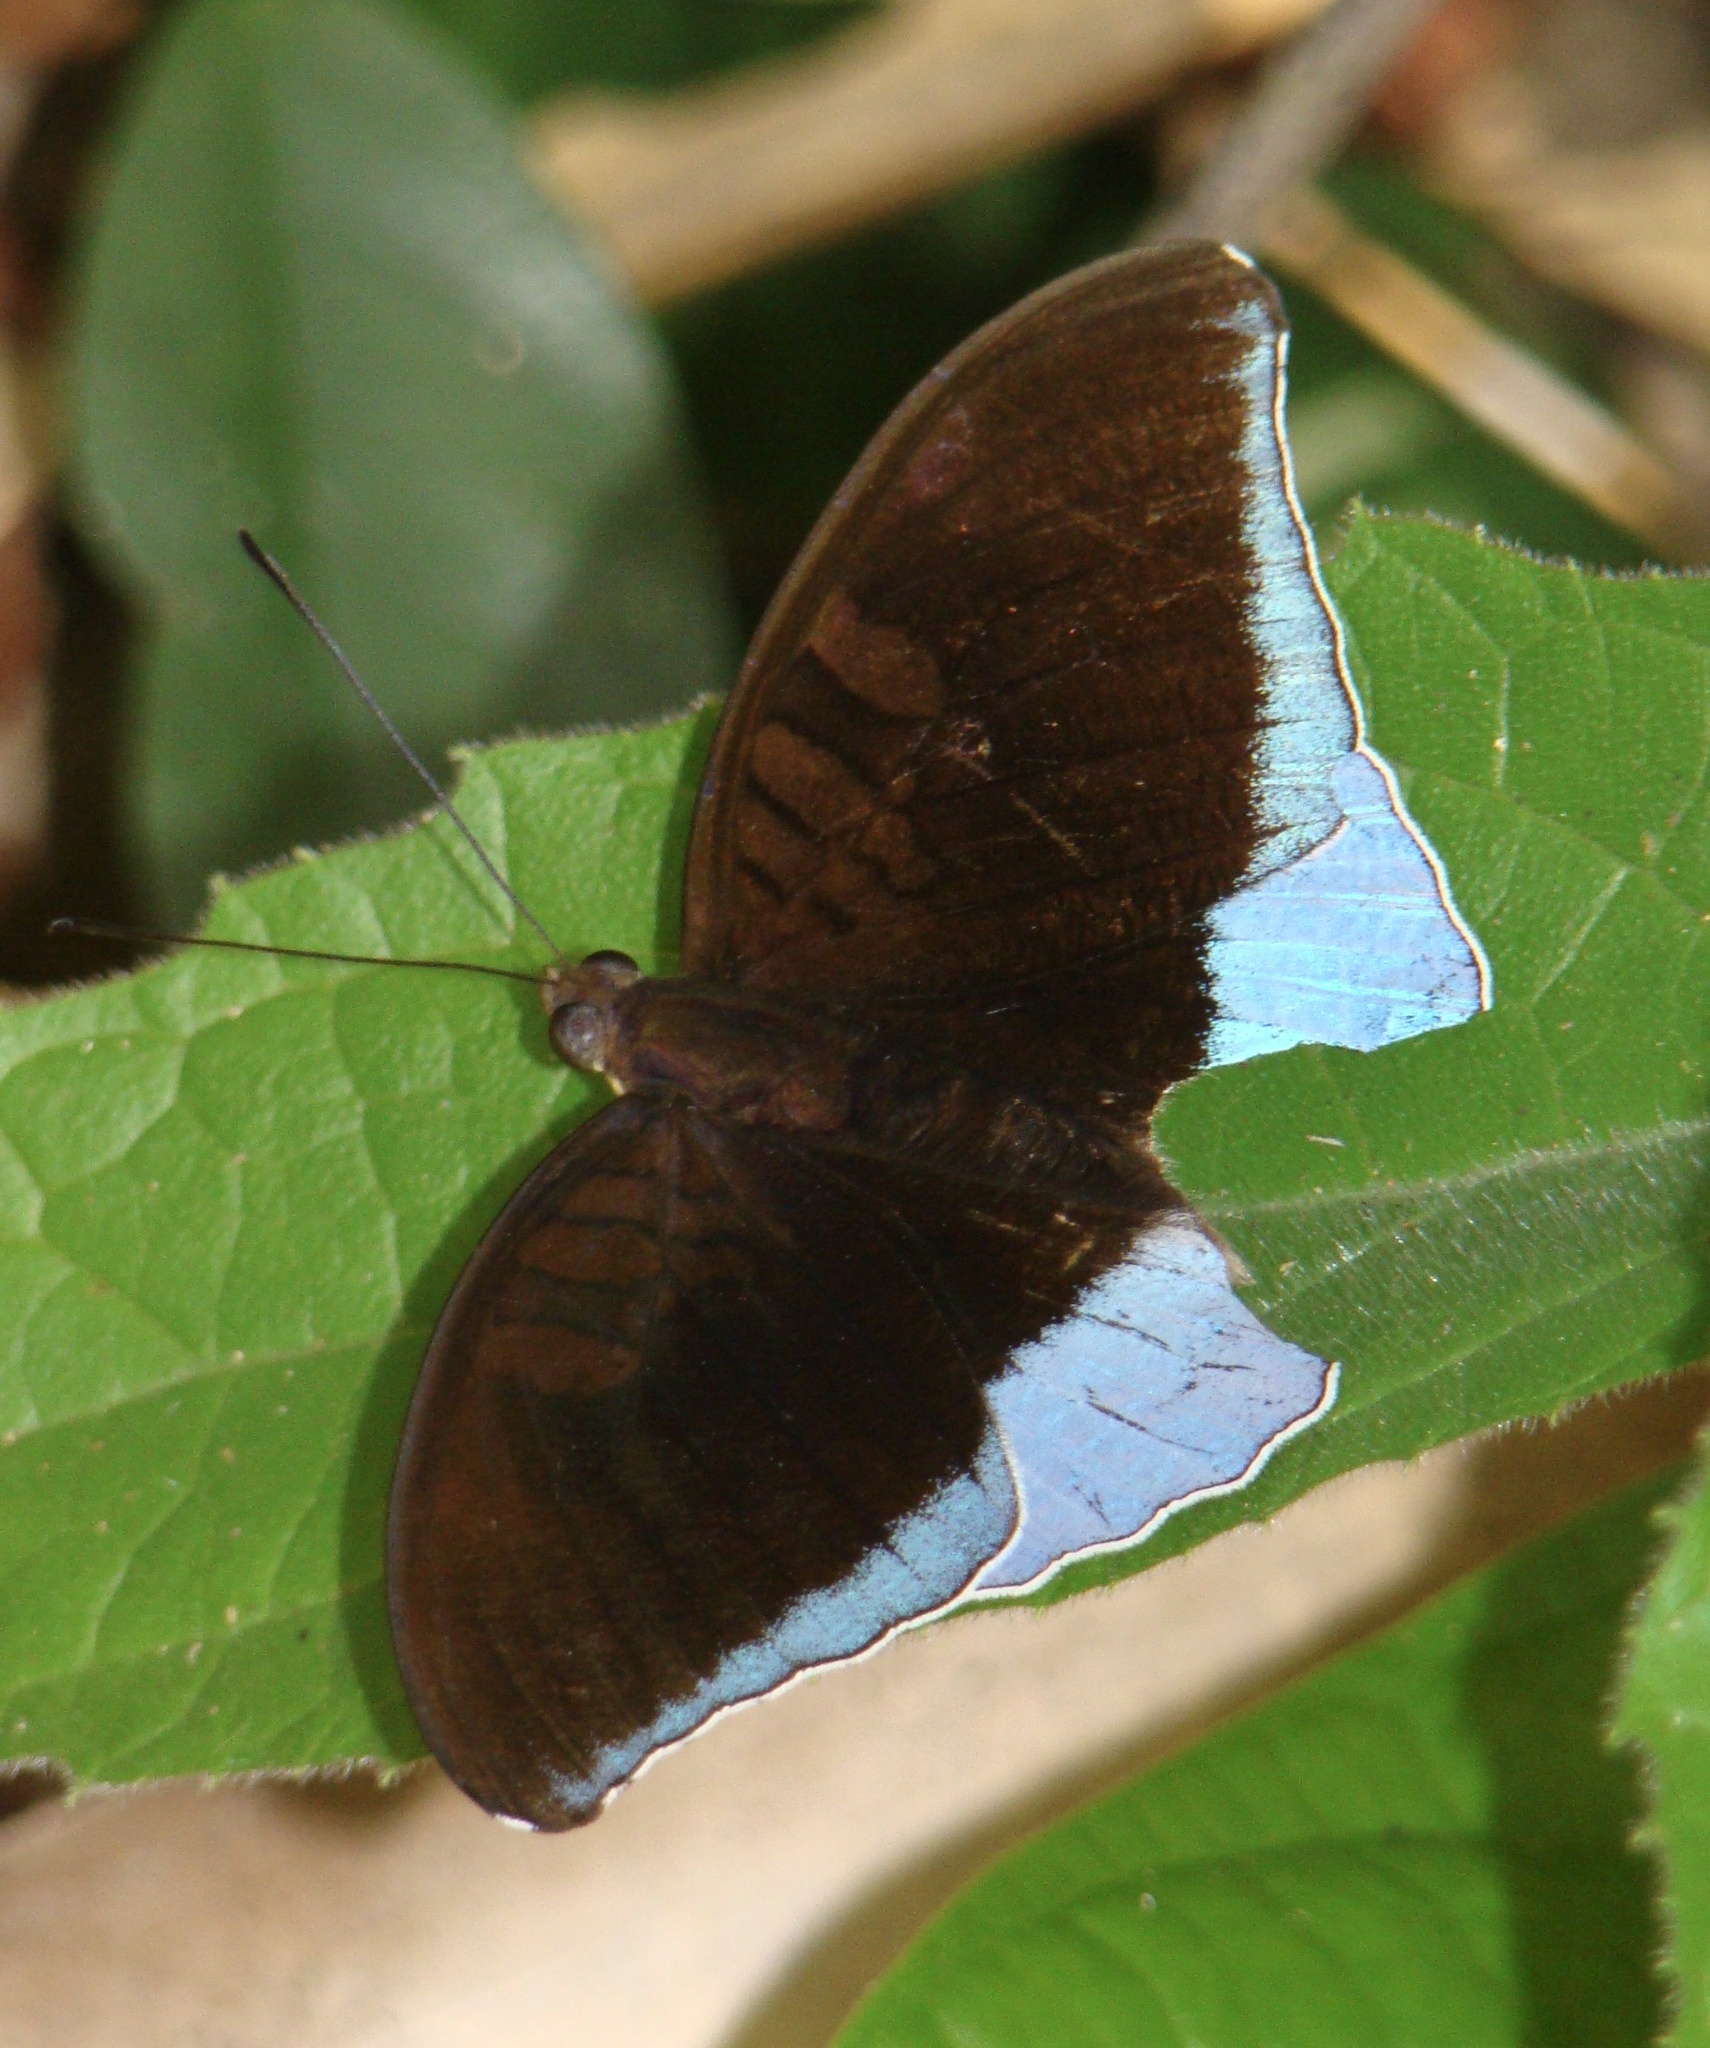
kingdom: Animalia
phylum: Arthropoda
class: Insecta
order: Lepidoptera
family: Nymphalidae
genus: Tanaecia
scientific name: Tanaecia iapis
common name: Horsfield's baron
